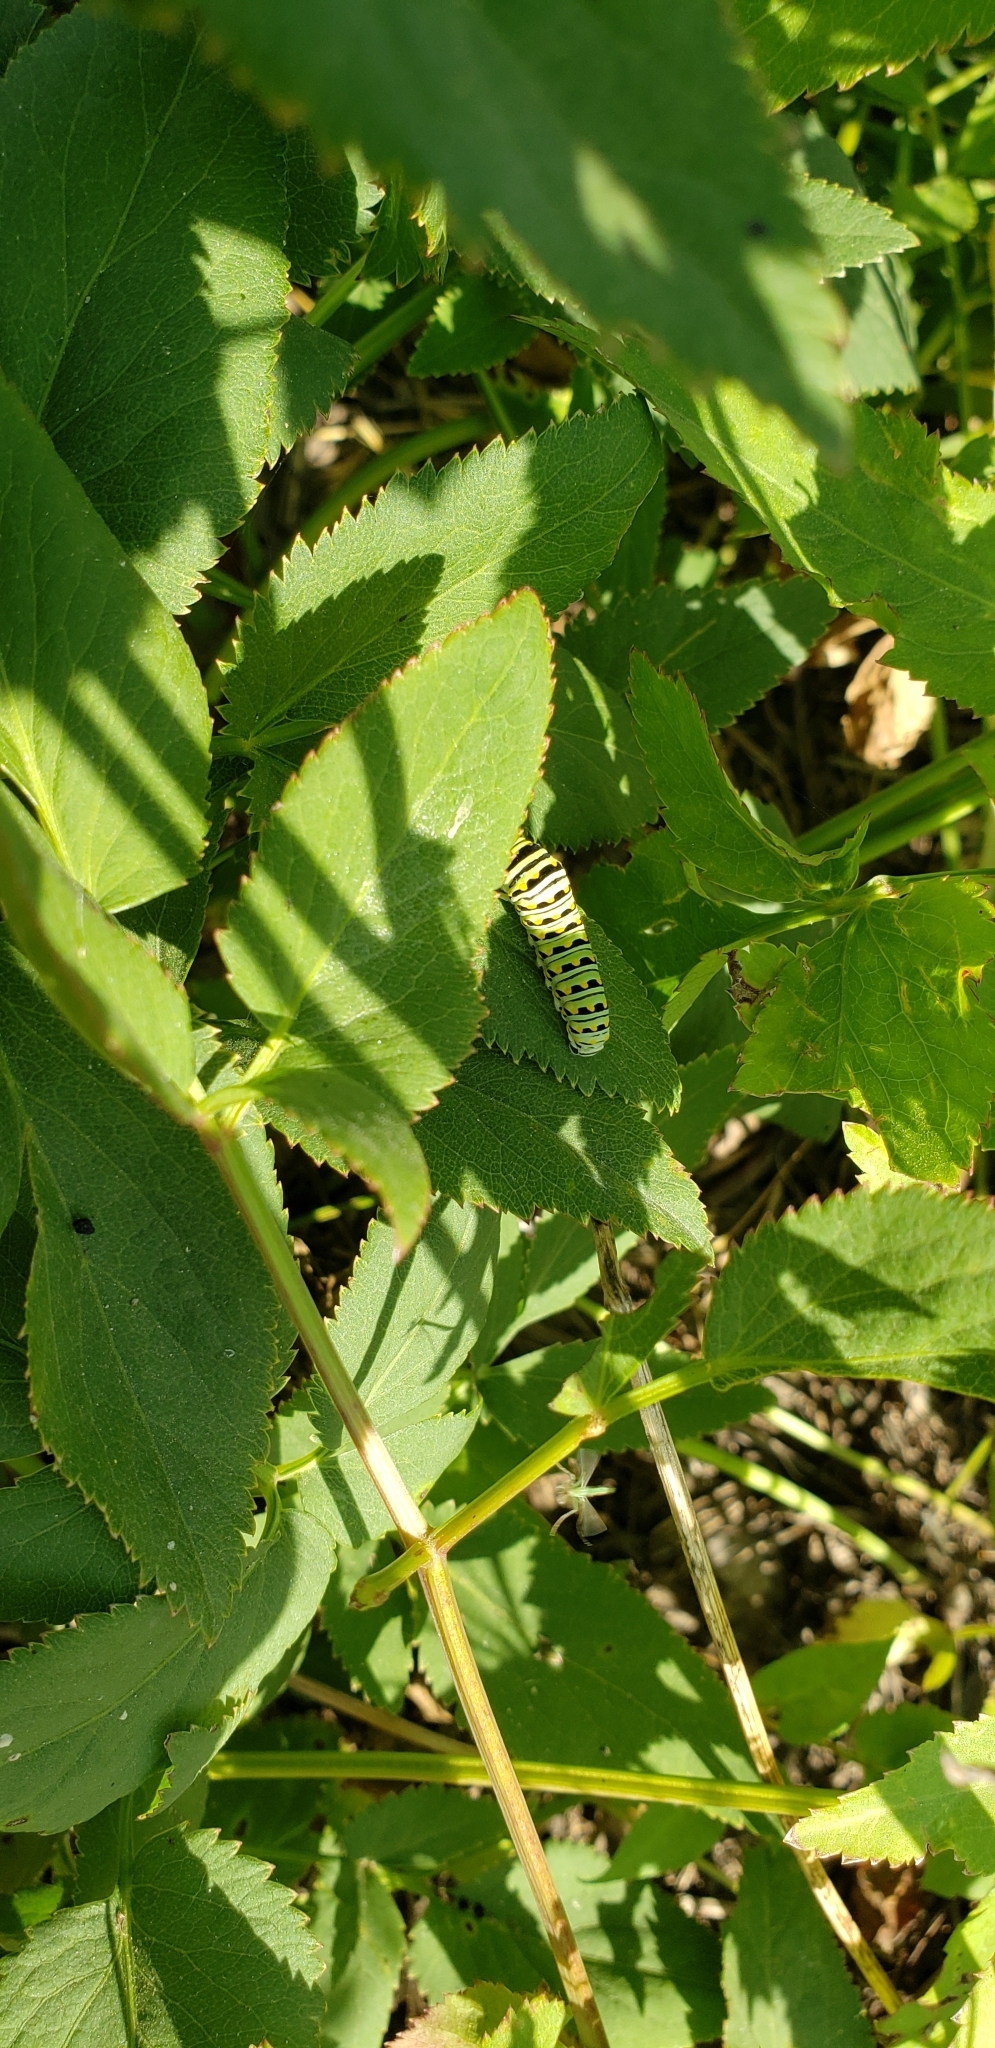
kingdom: Animalia
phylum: Arthropoda
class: Insecta
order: Lepidoptera
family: Papilionidae
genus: Papilio
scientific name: Papilio polyxenes
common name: Black swallowtail
